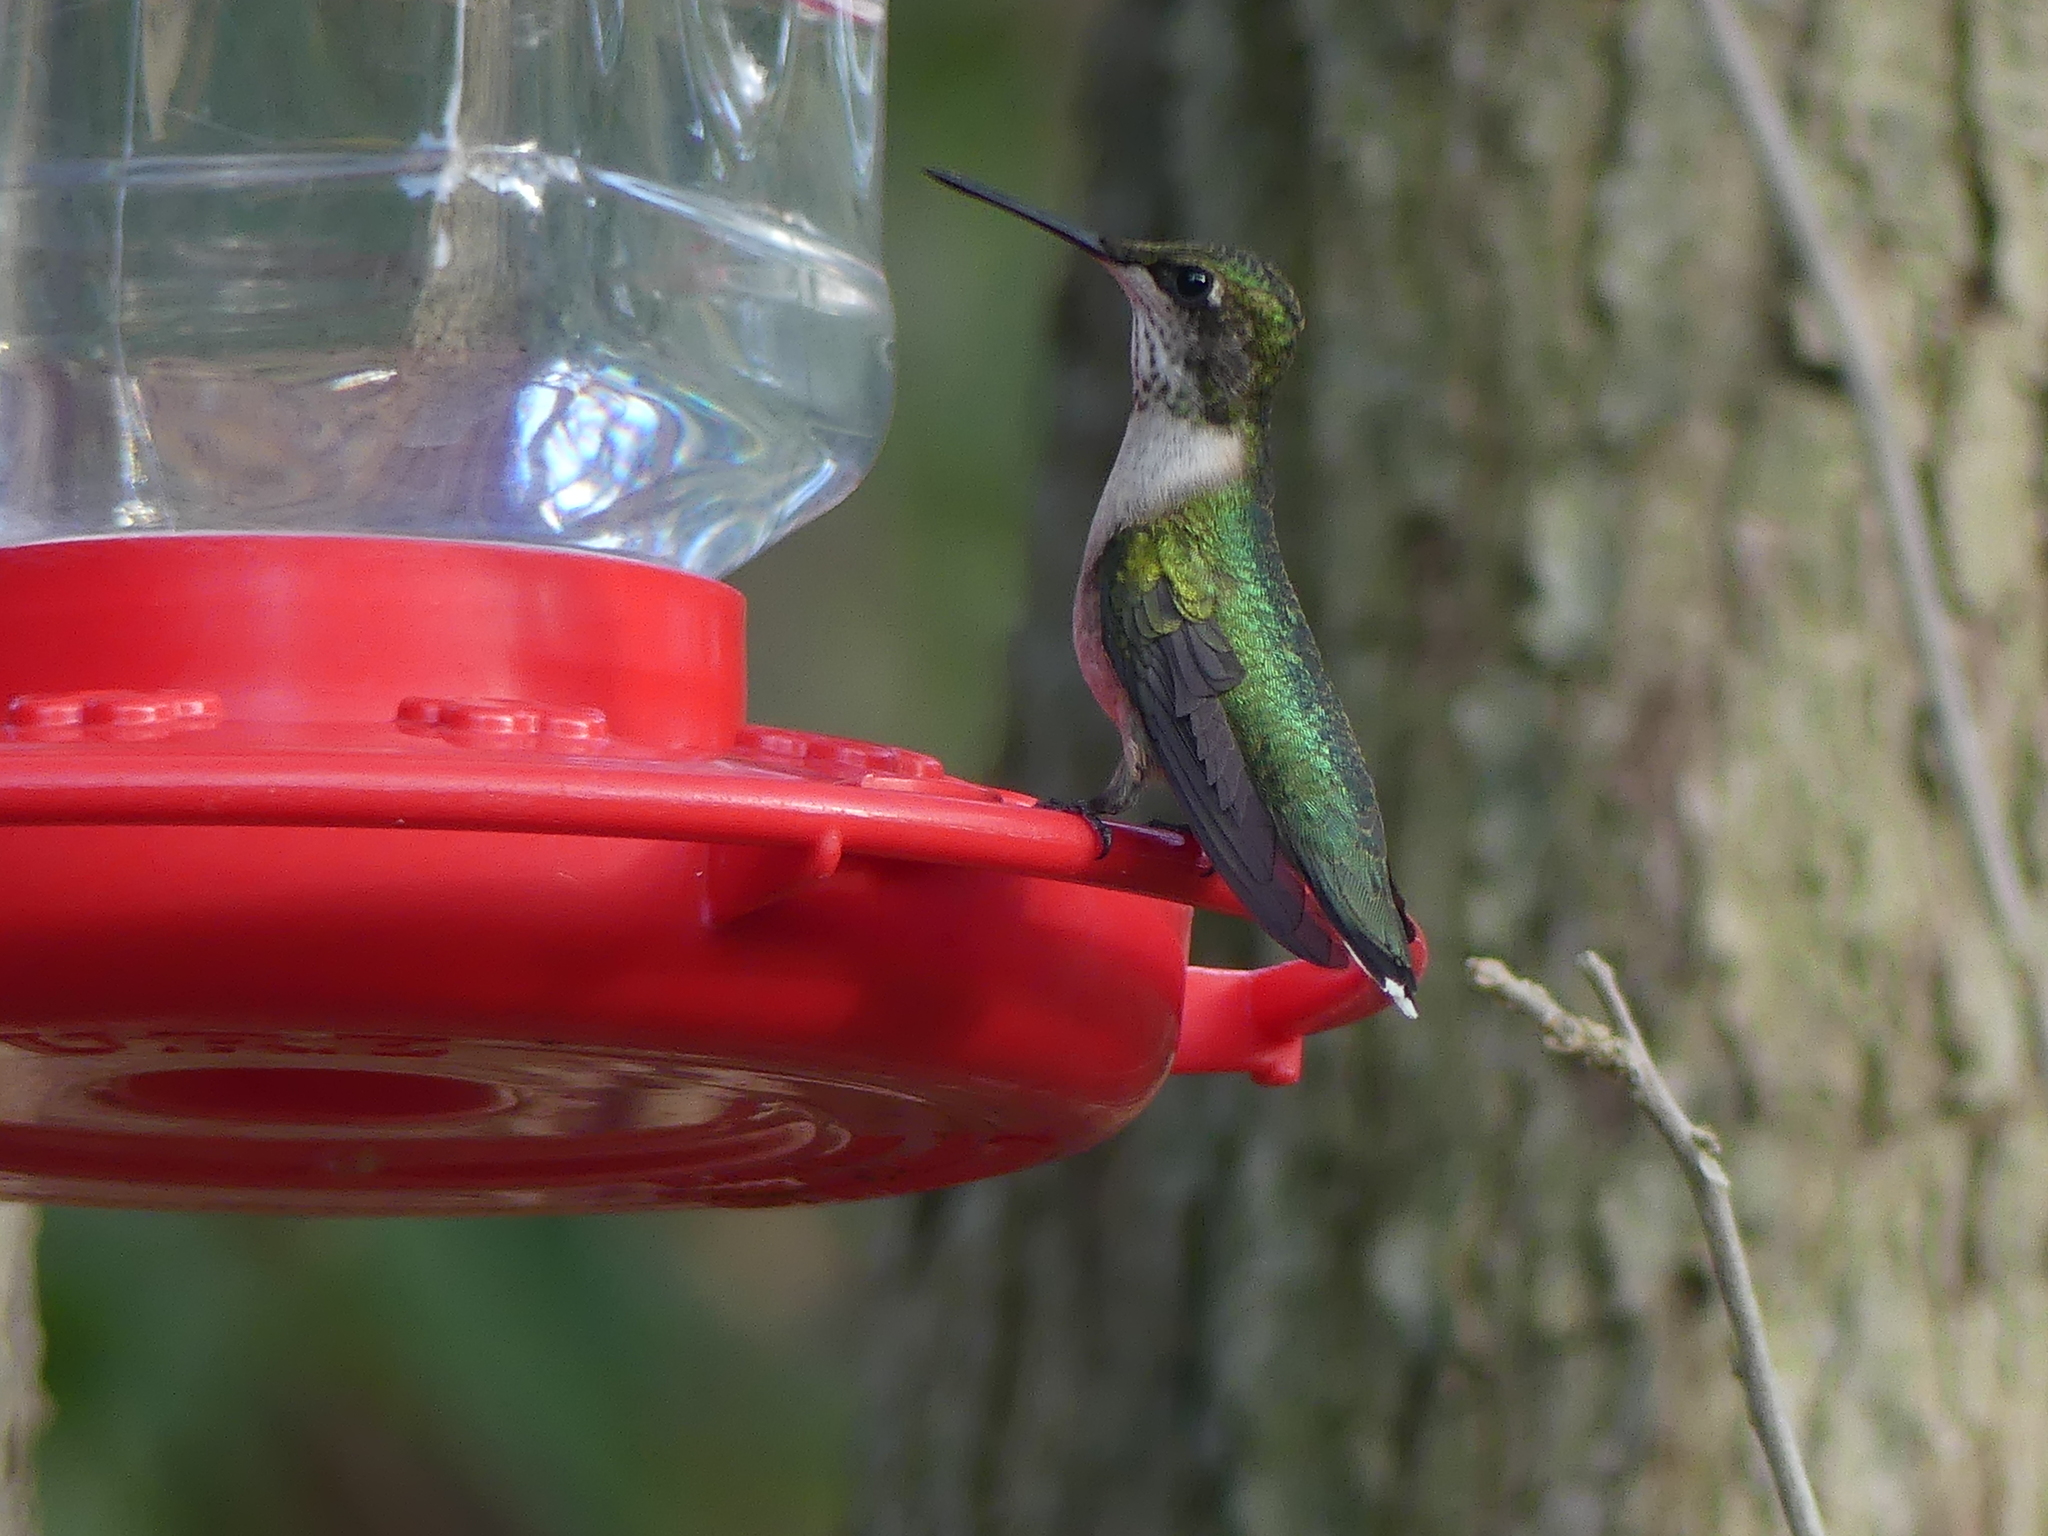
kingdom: Animalia
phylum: Chordata
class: Aves
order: Apodiformes
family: Trochilidae
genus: Archilochus
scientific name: Archilochus colubris
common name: Ruby-throated hummingbird
